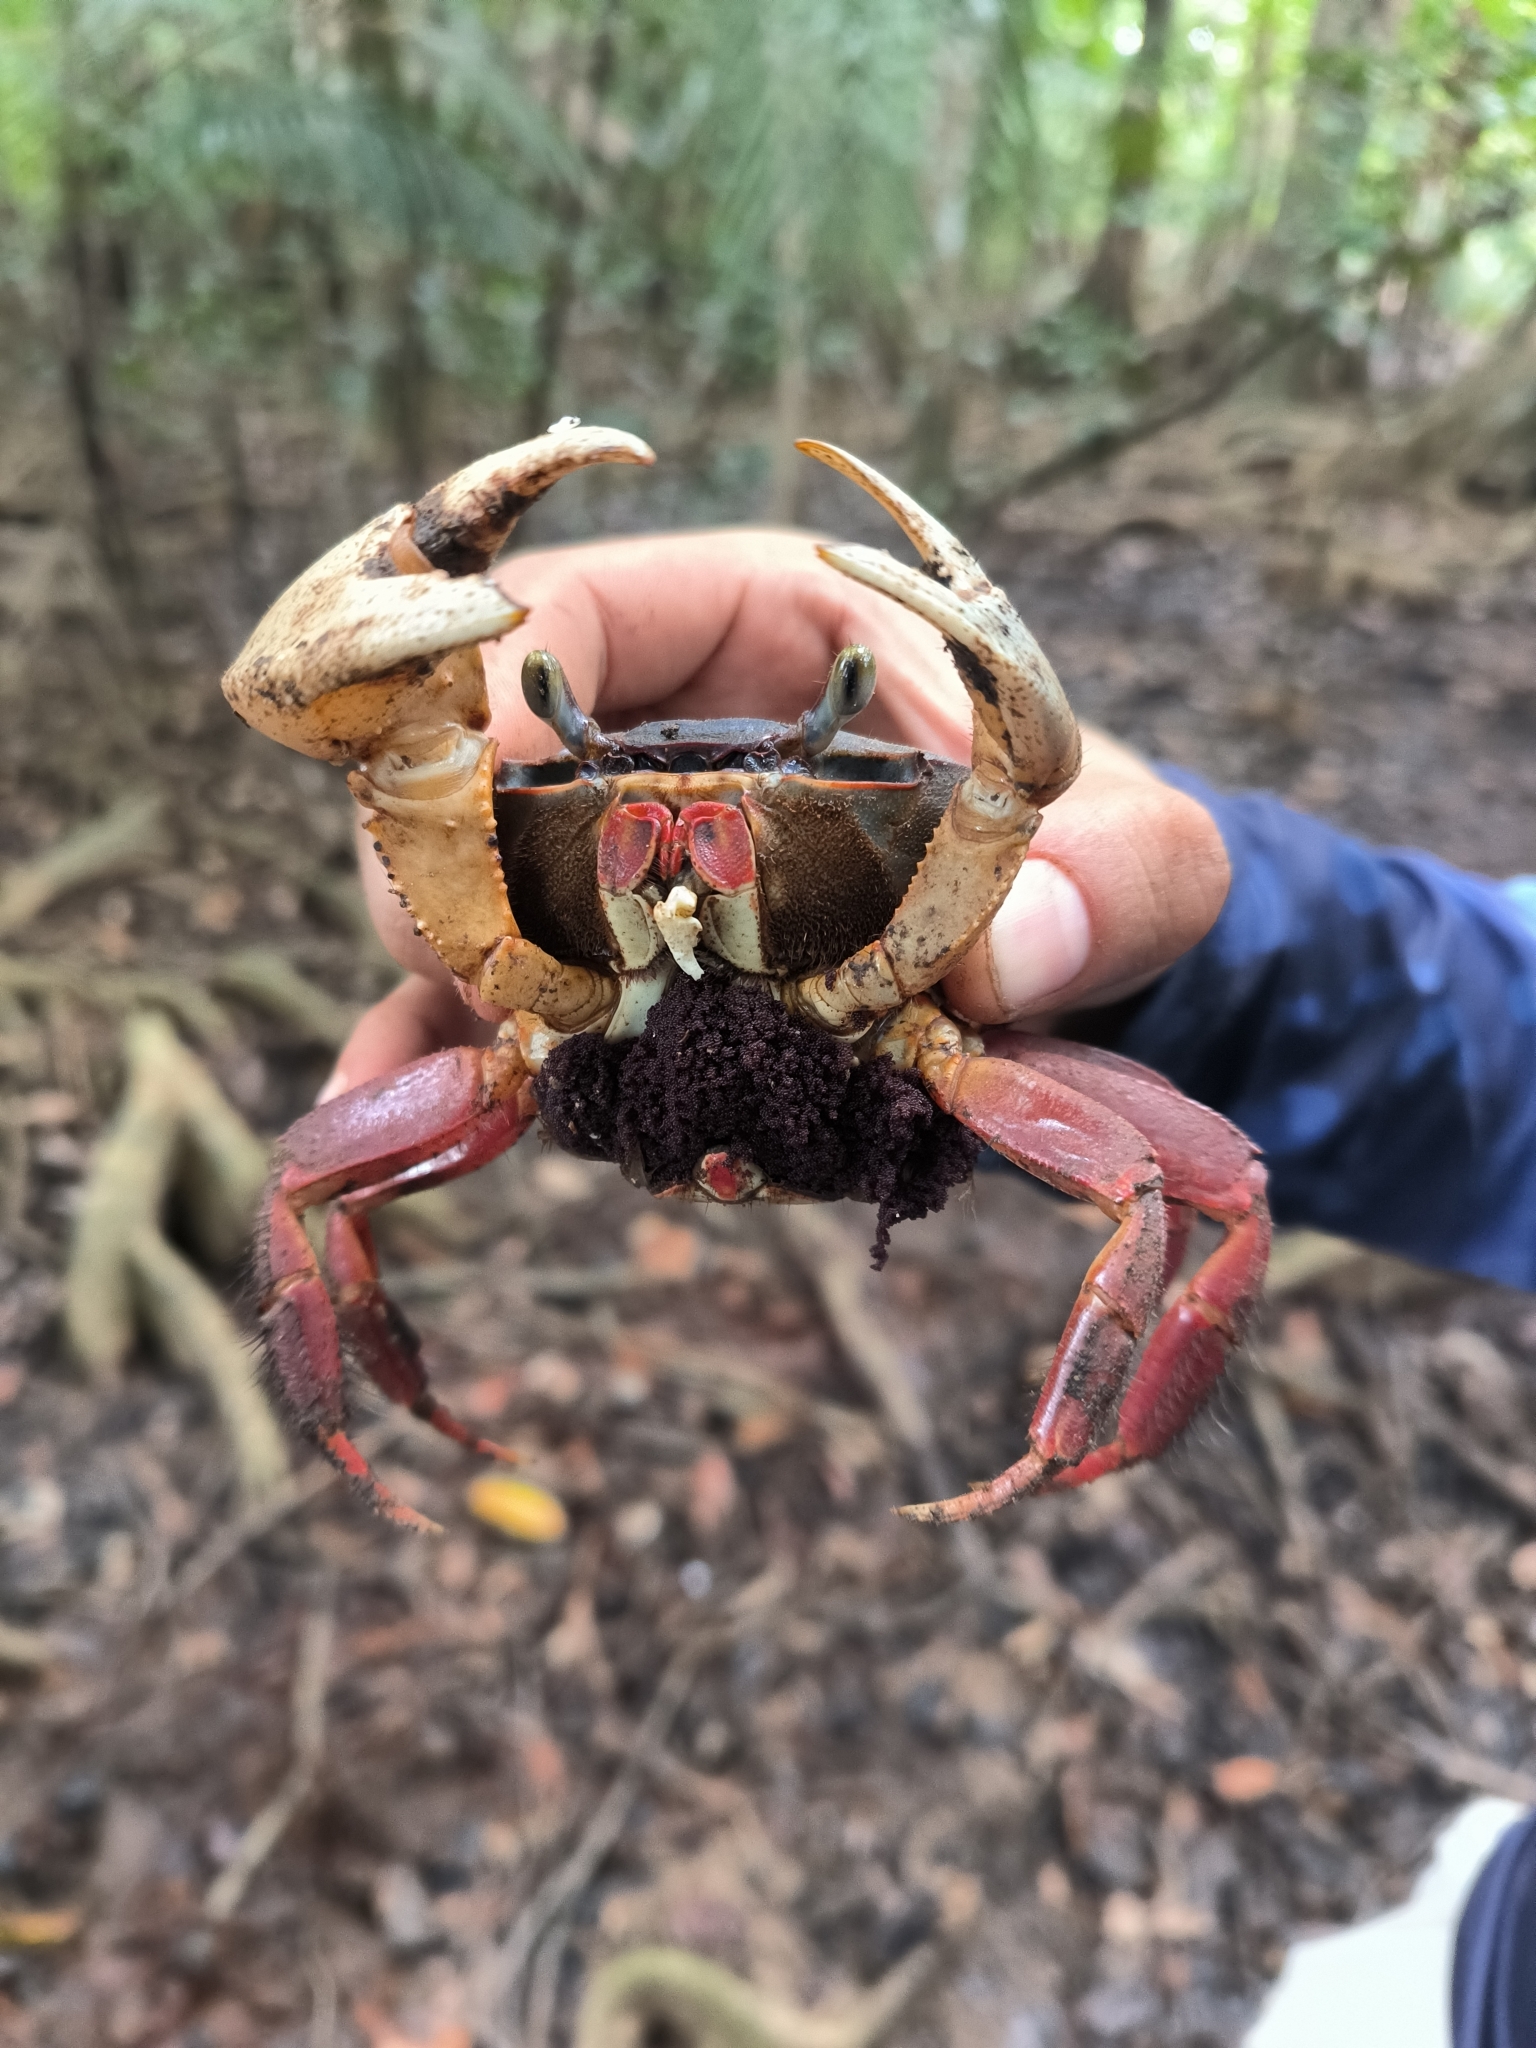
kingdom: Animalia
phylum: Arthropoda
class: Malacostraca
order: Decapoda
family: Gecarcinidae
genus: Cardisoma
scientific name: Cardisoma crassum
